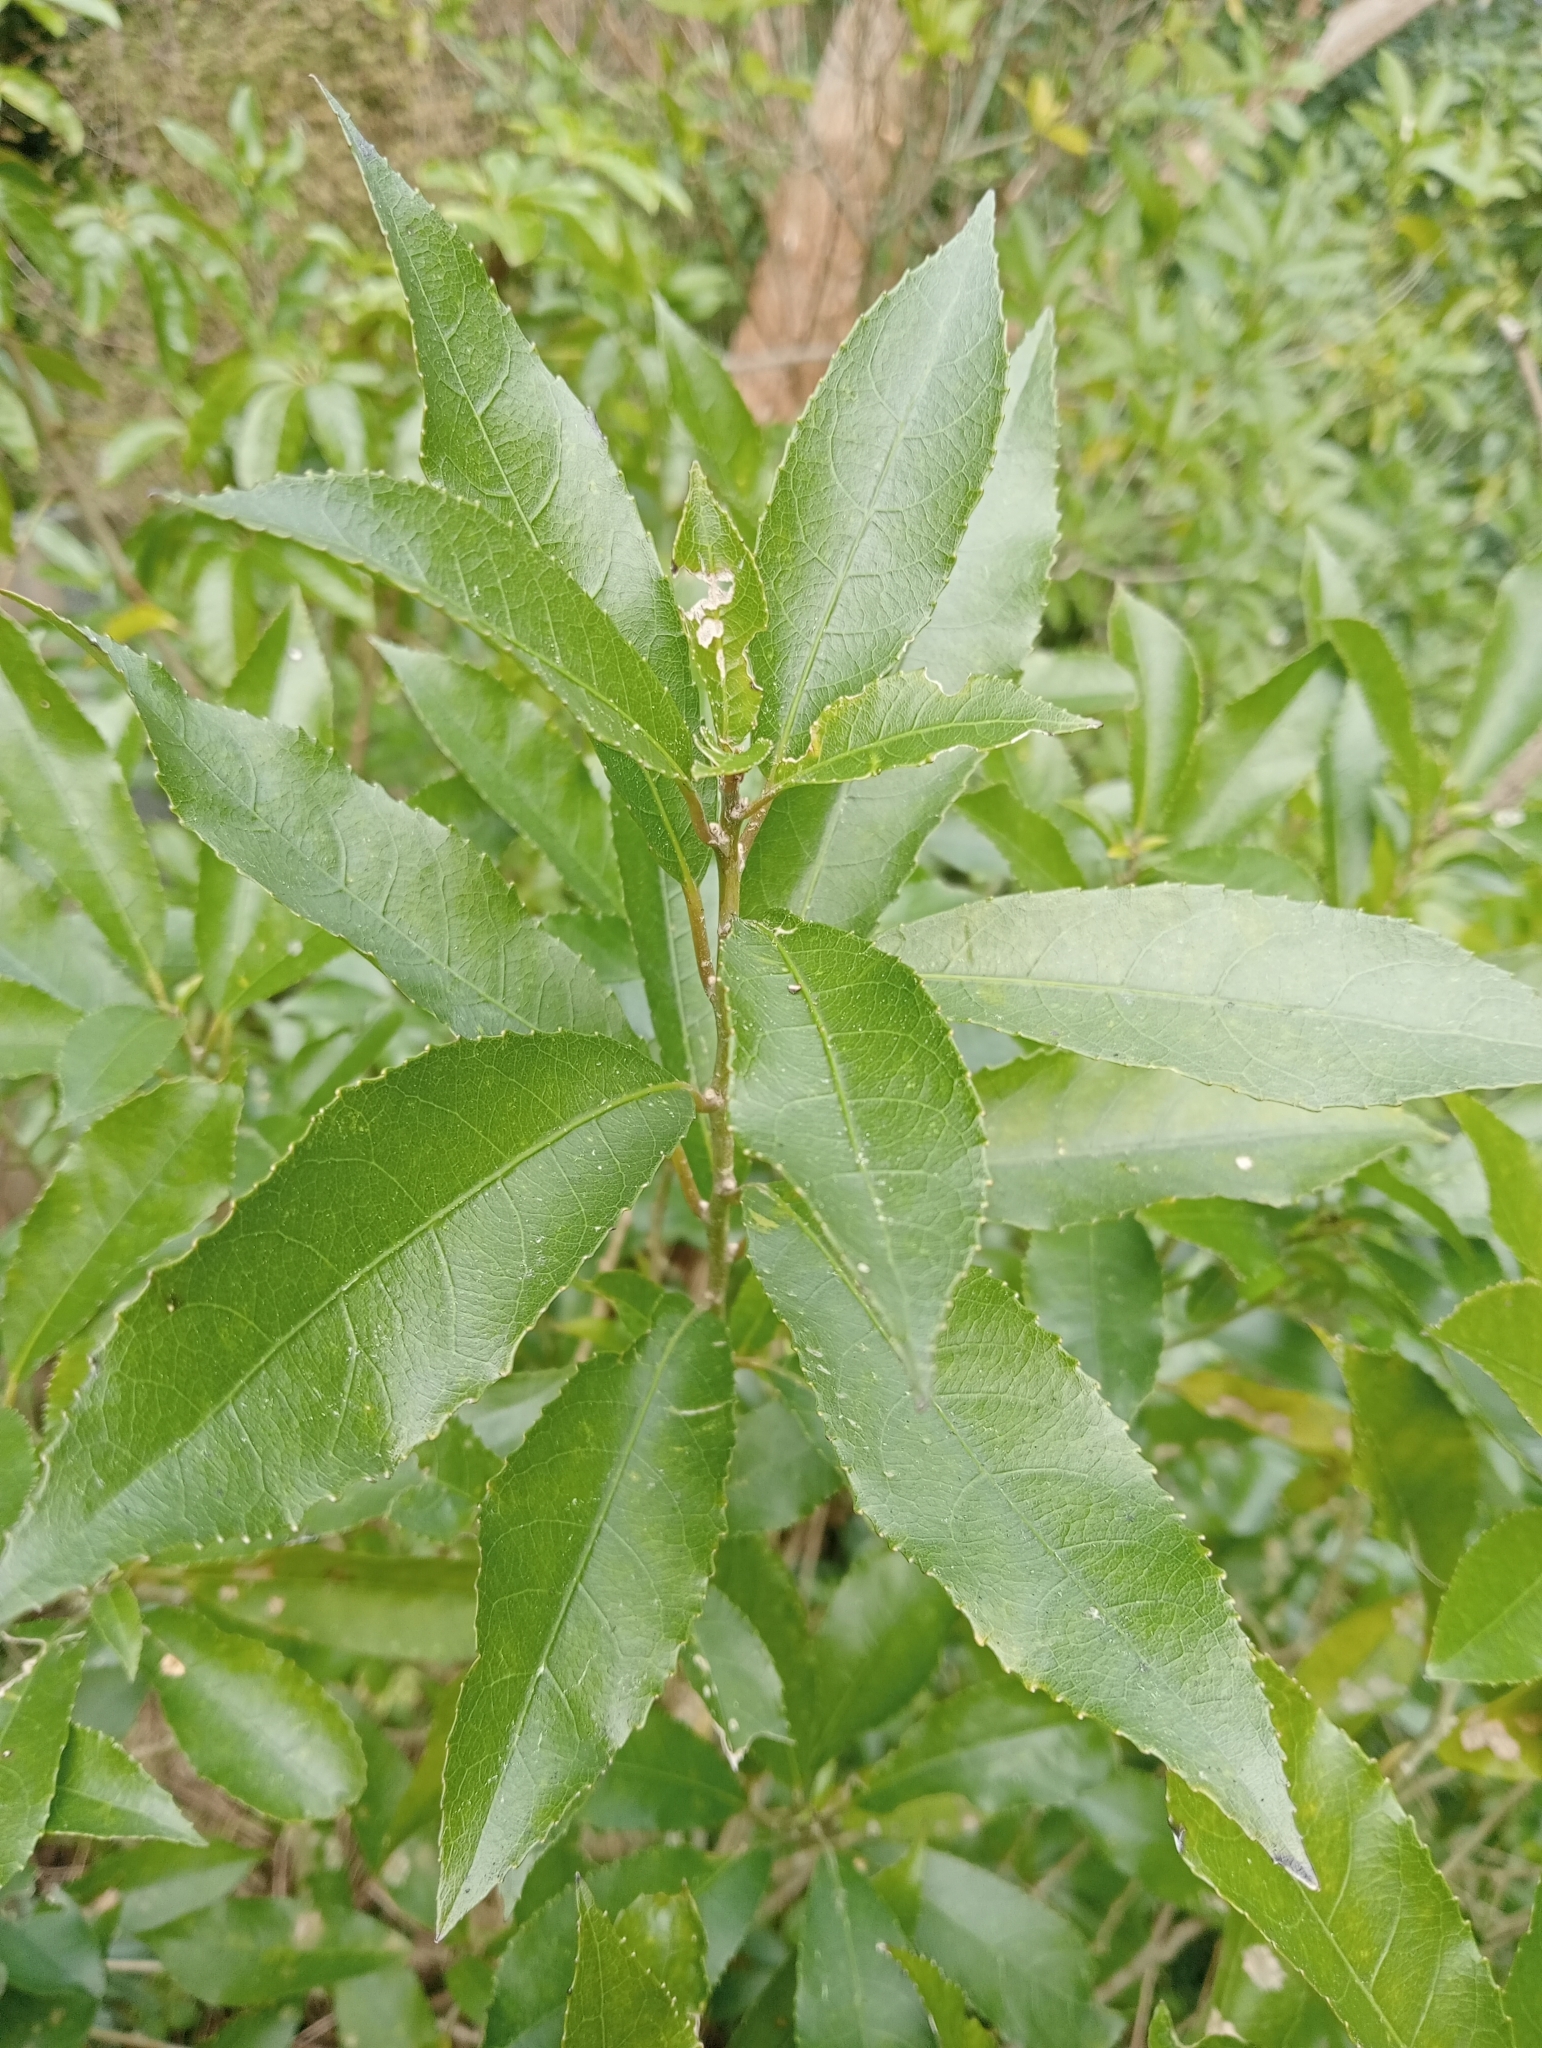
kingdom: Plantae
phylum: Tracheophyta
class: Magnoliopsida
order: Malpighiales
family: Violaceae
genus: Melicytus
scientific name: Melicytus ramiflorus
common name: Mahoe
